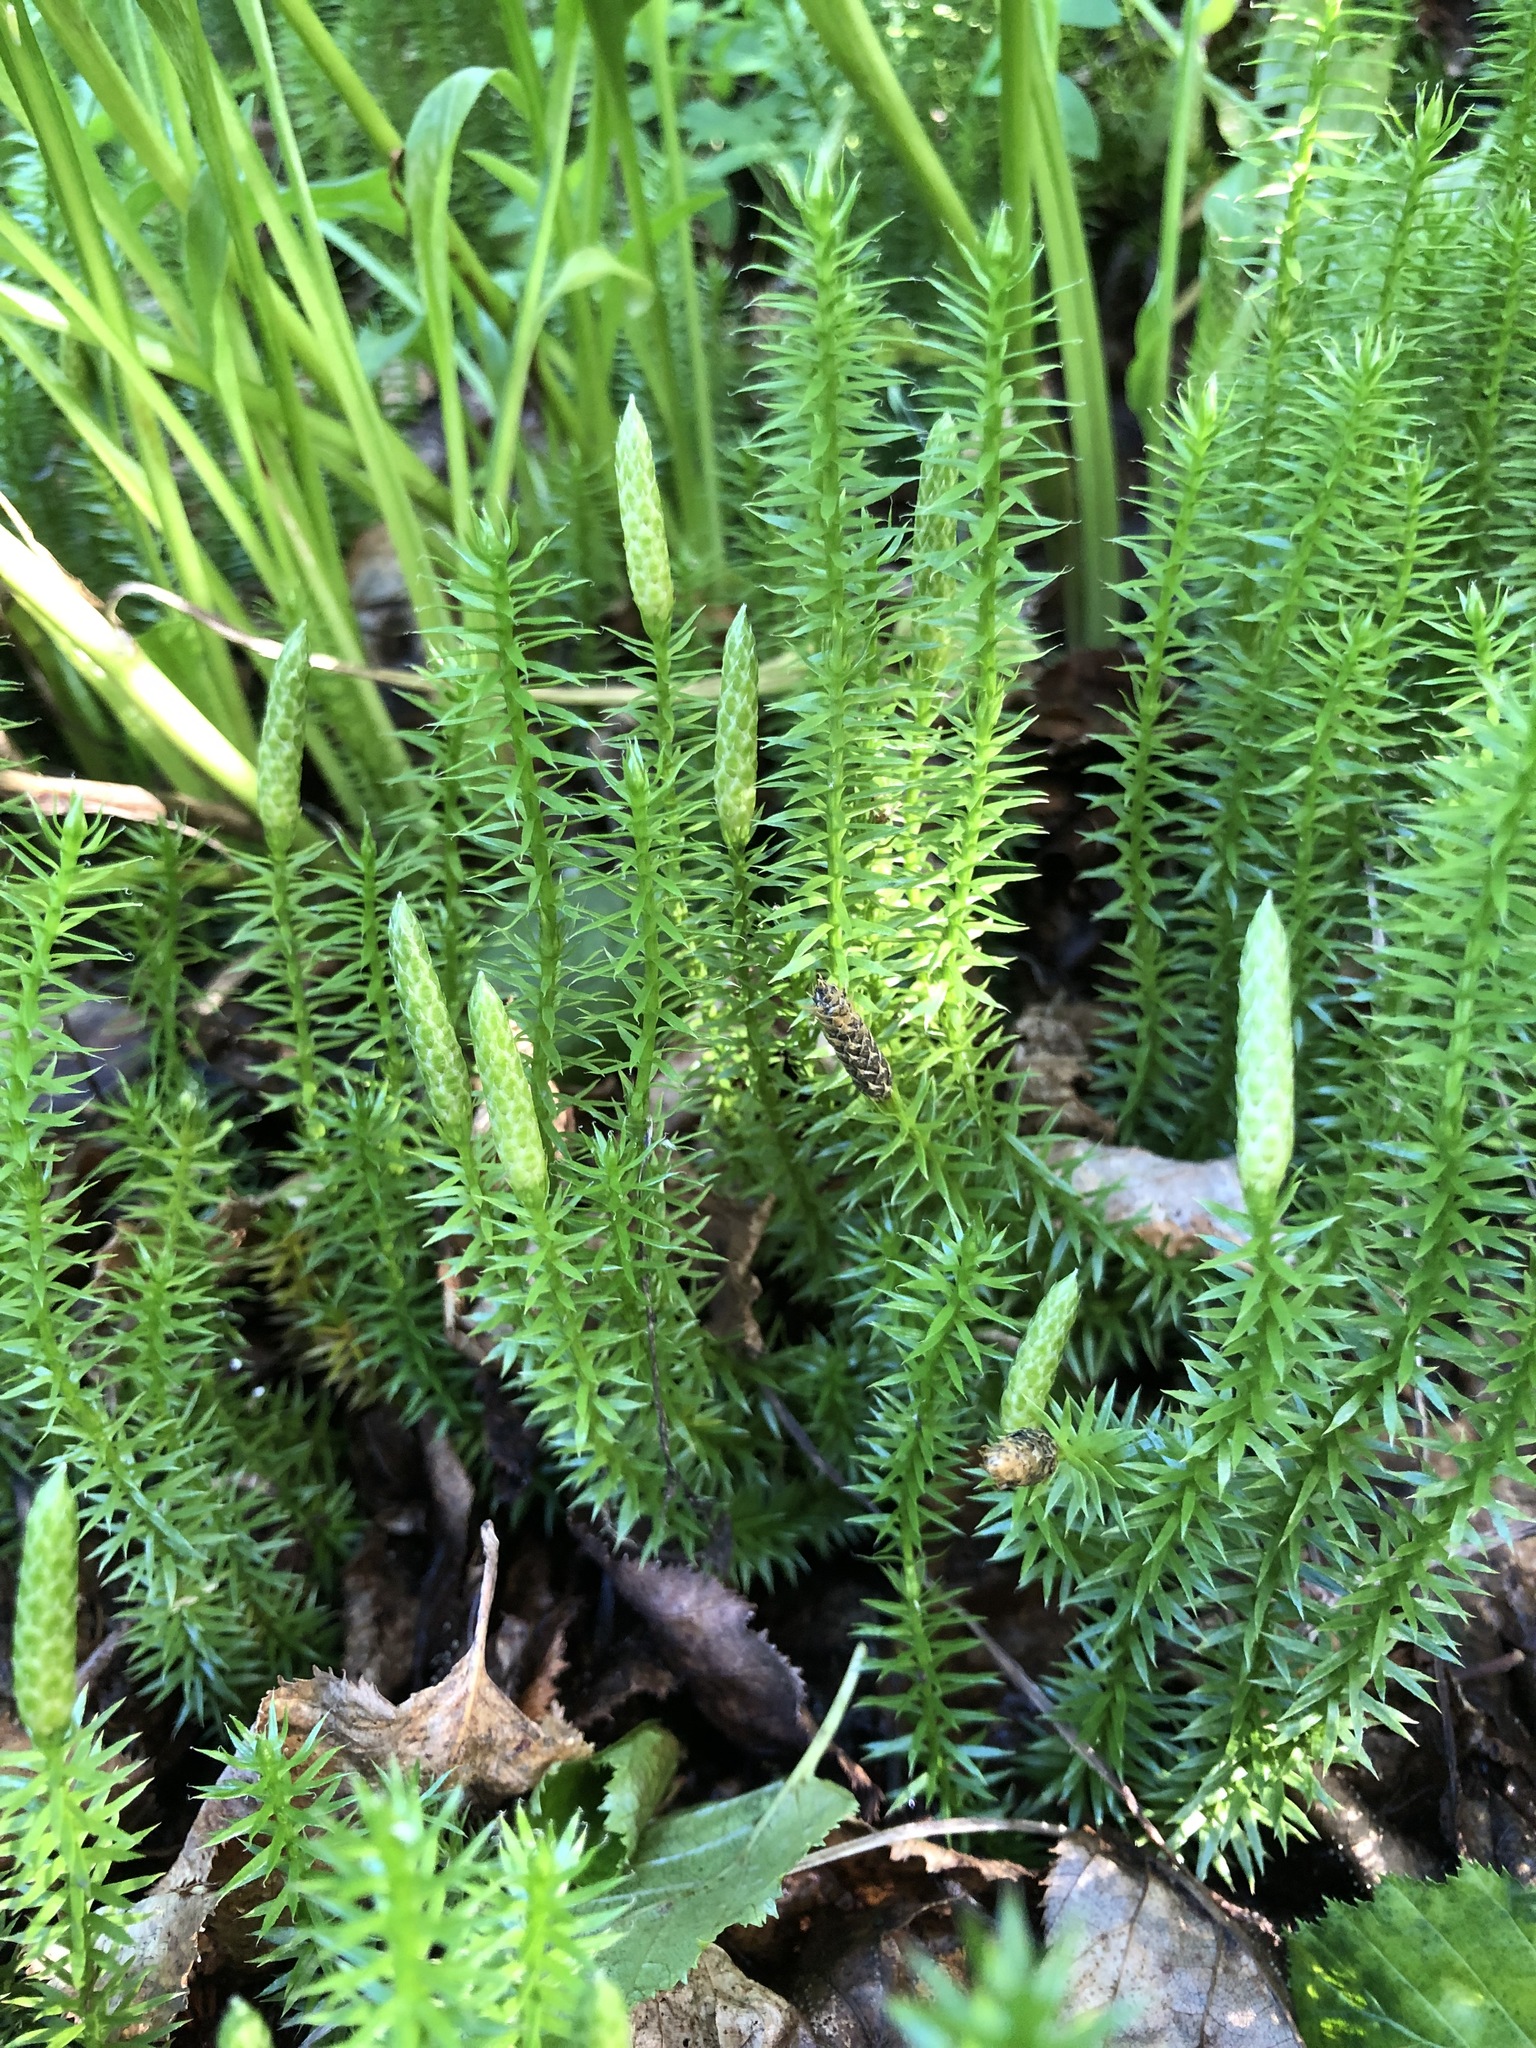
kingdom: Plantae
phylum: Tracheophyta
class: Lycopodiopsida
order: Lycopodiales
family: Lycopodiaceae
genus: Spinulum
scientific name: Spinulum annotinum
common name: Interrupted club-moss
